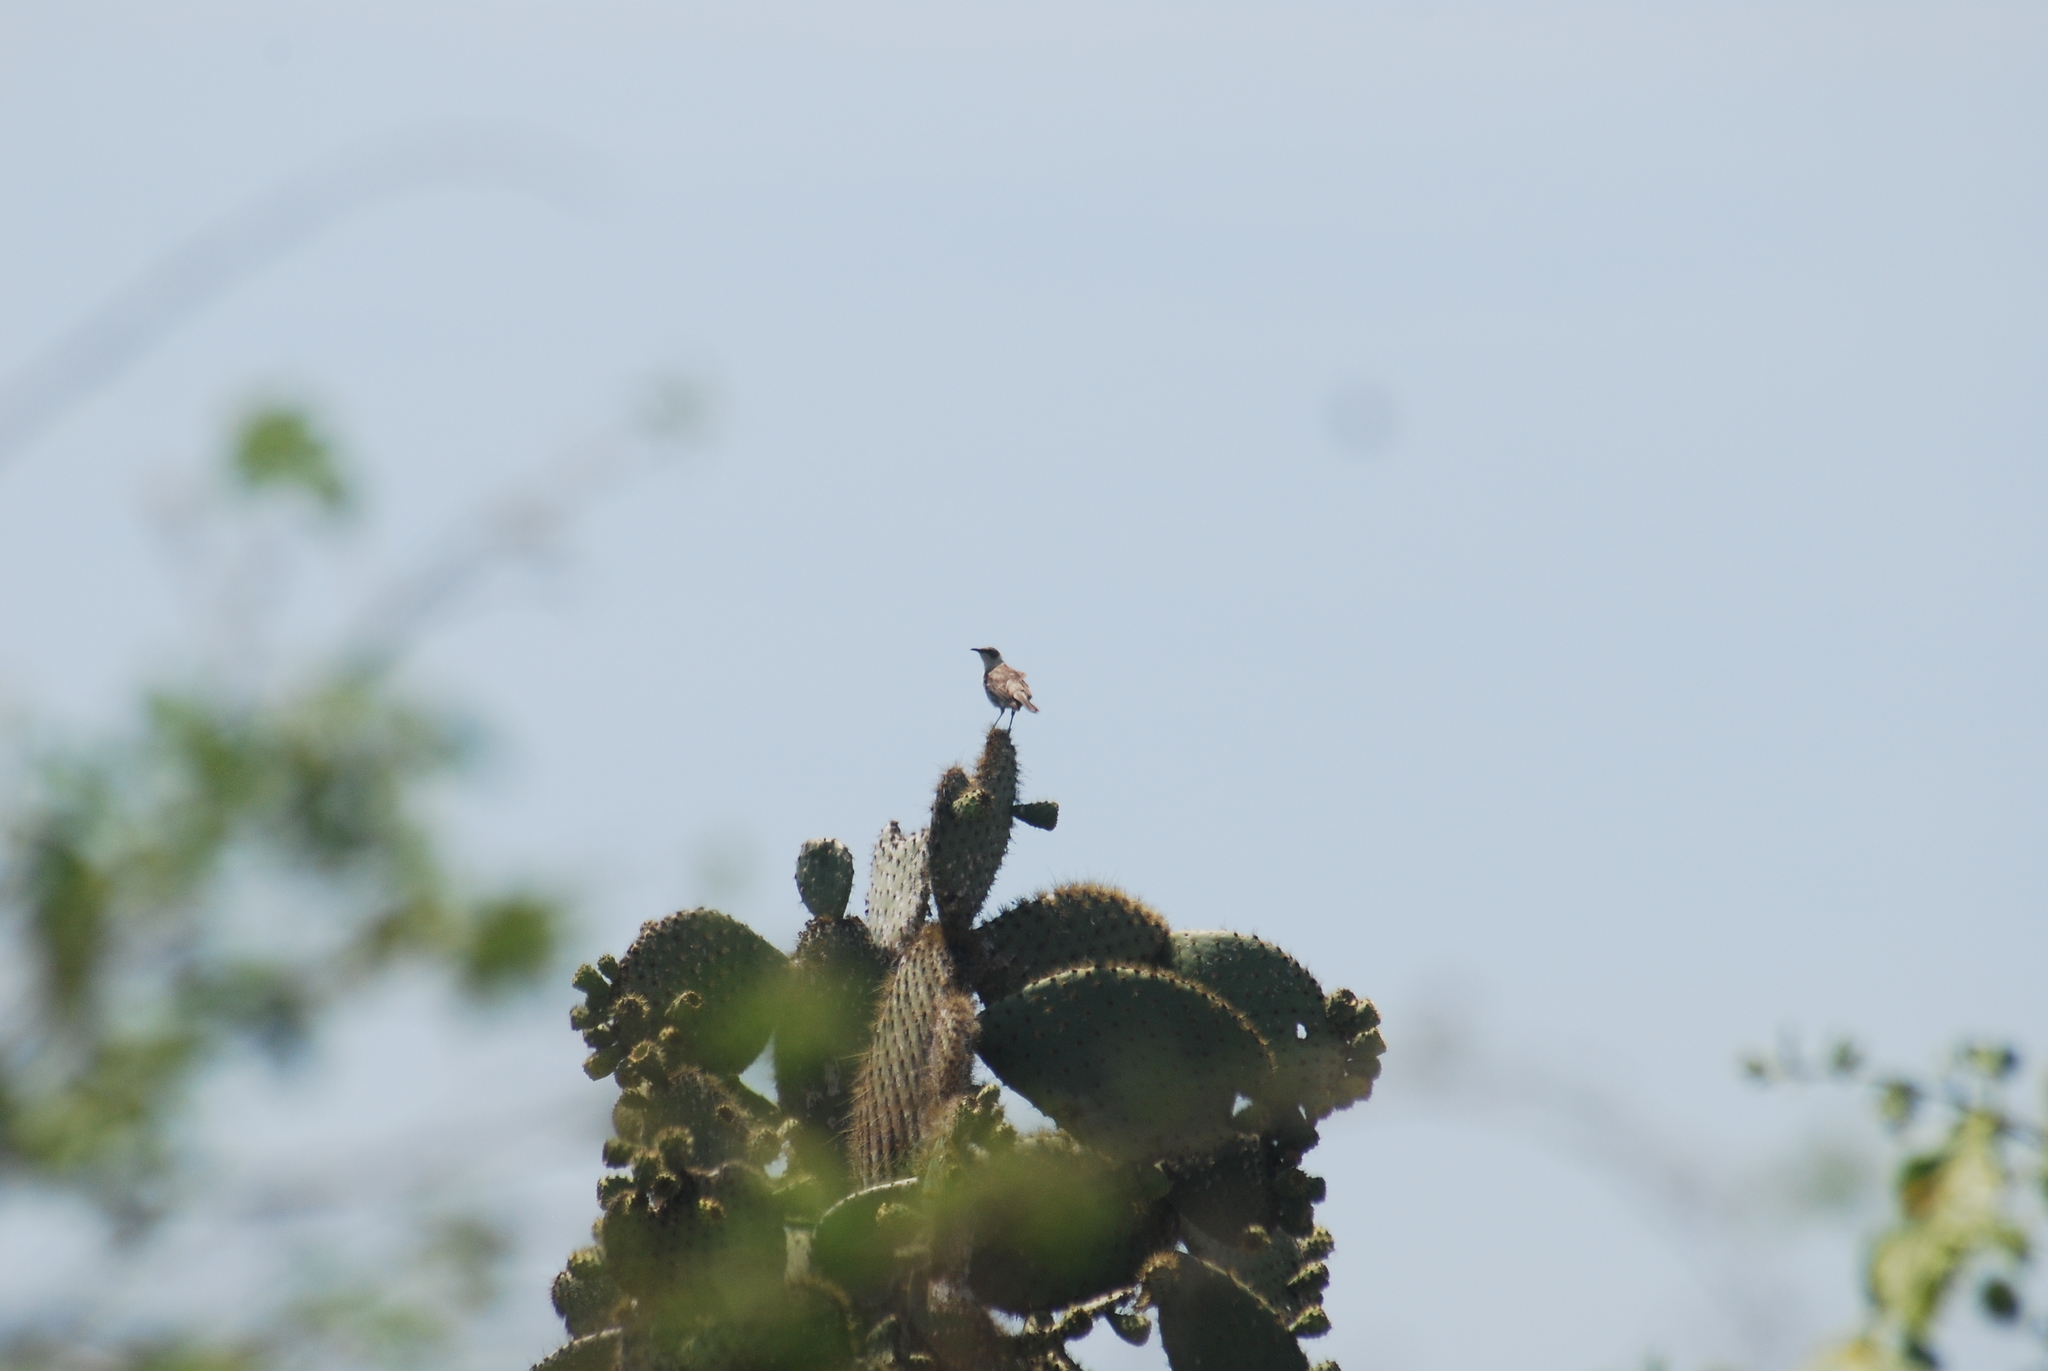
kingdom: Animalia
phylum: Chordata
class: Aves
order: Passeriformes
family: Mimidae
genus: Mimus
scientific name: Mimus parvulus
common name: Galapagos mockingbird
